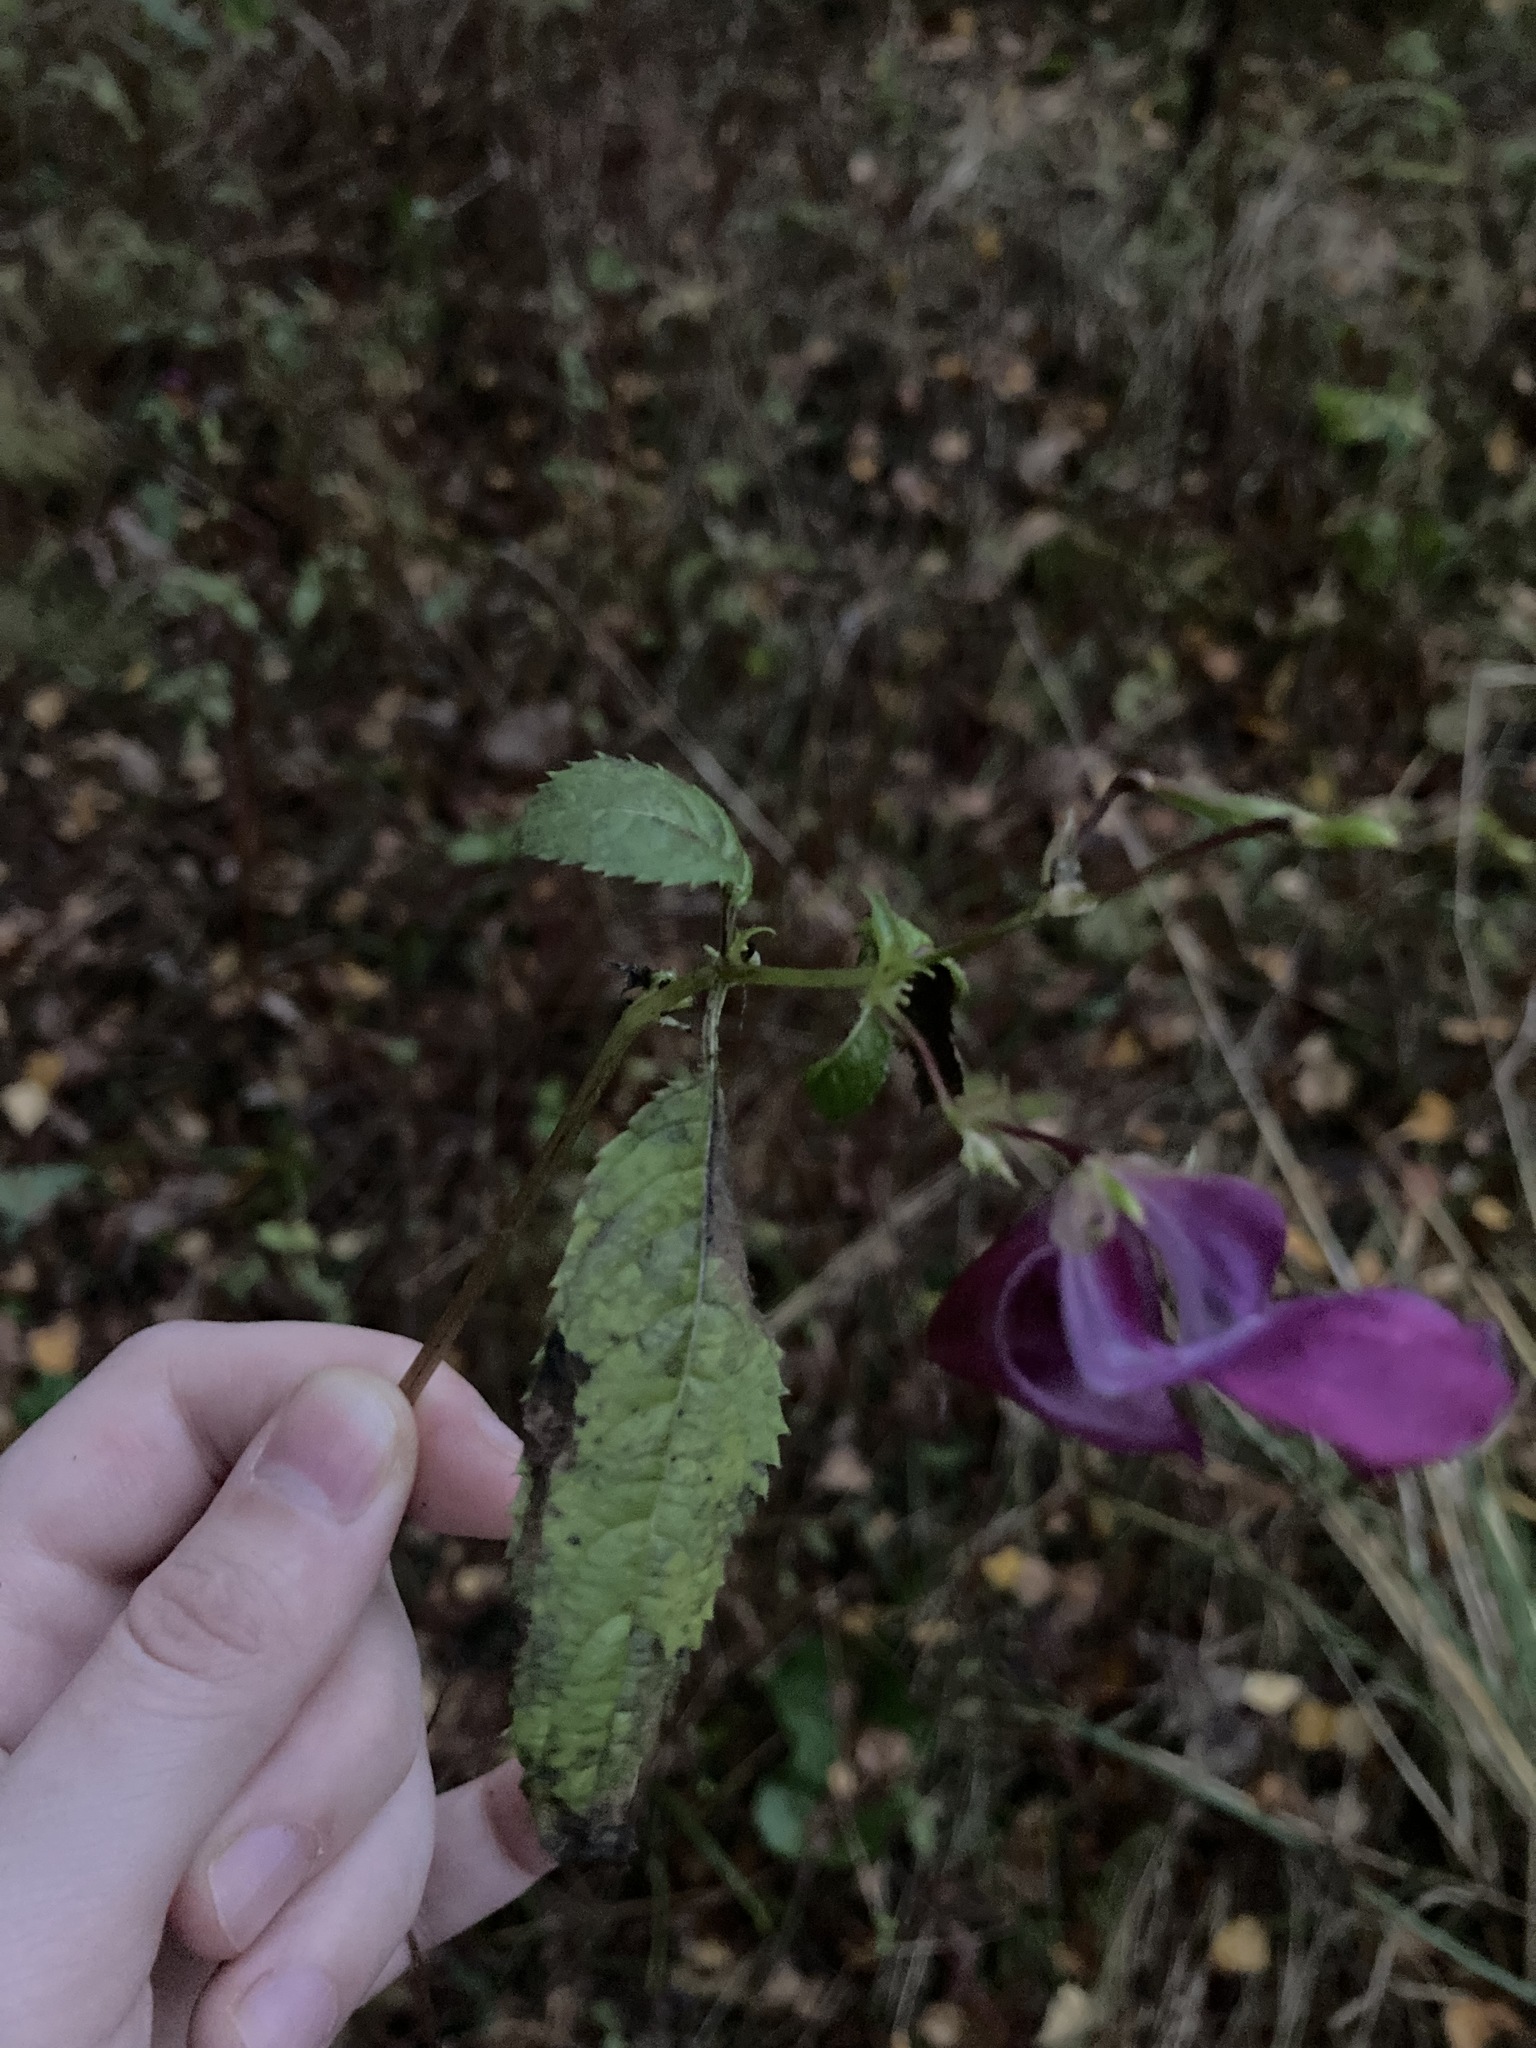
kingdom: Plantae
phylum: Tracheophyta
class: Magnoliopsida
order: Ericales
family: Balsaminaceae
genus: Impatiens
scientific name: Impatiens glandulifera
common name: Himalayan balsam
